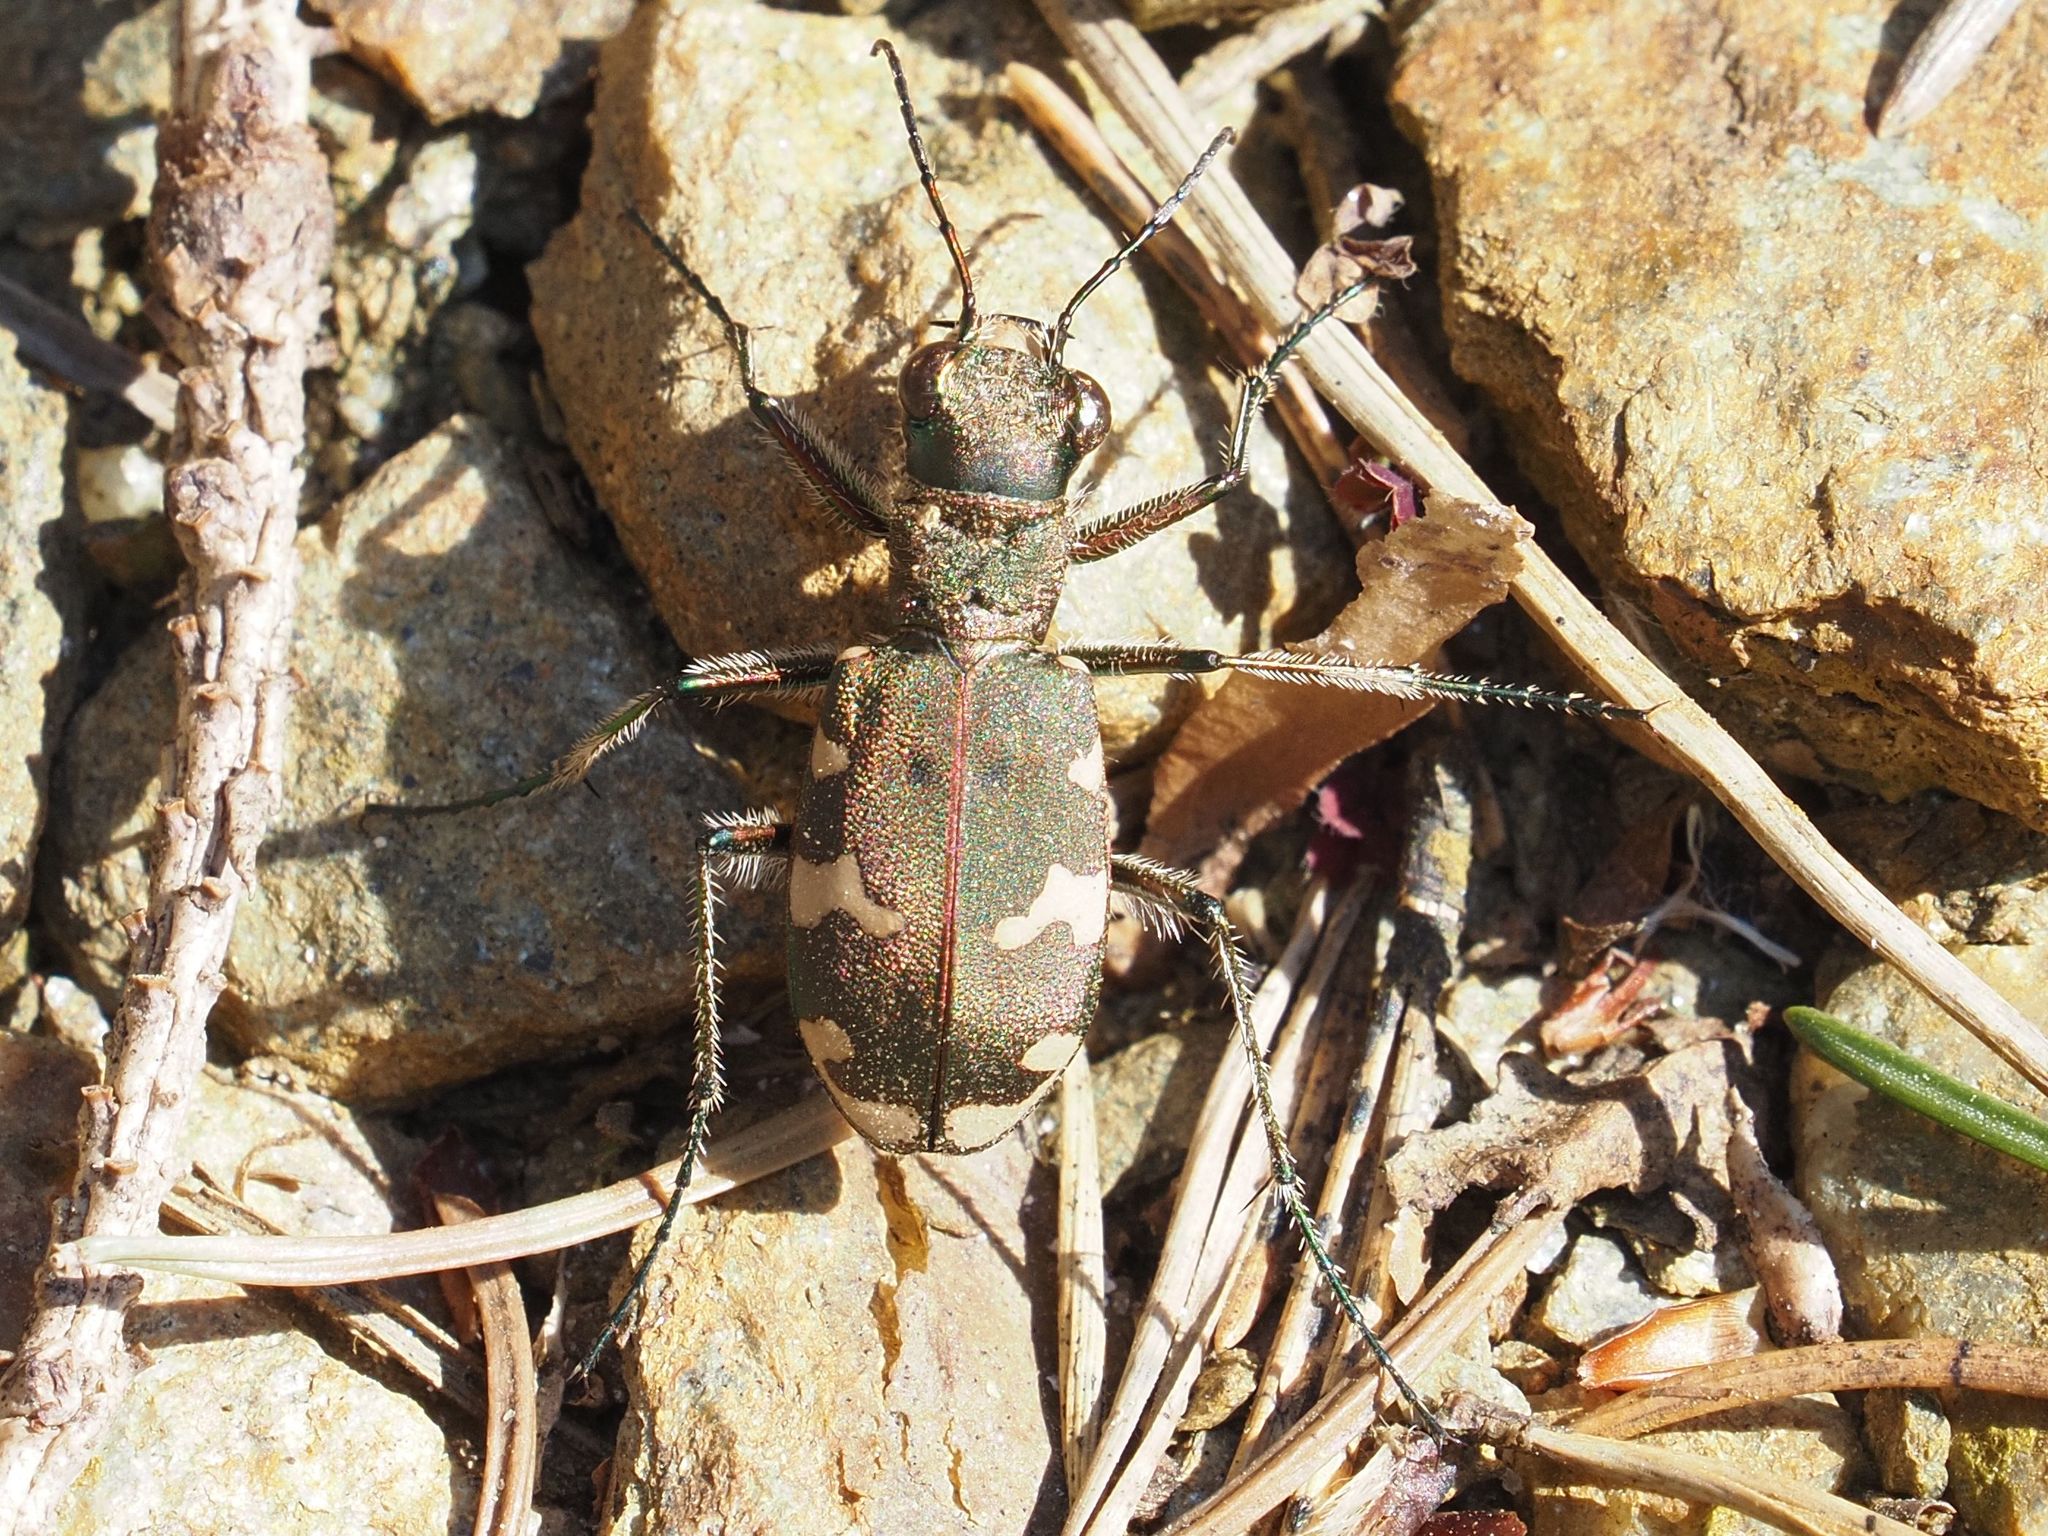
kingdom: Animalia
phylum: Arthropoda
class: Insecta
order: Coleoptera
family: Carabidae
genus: Cicindela
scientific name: Cicindela sylvicola
